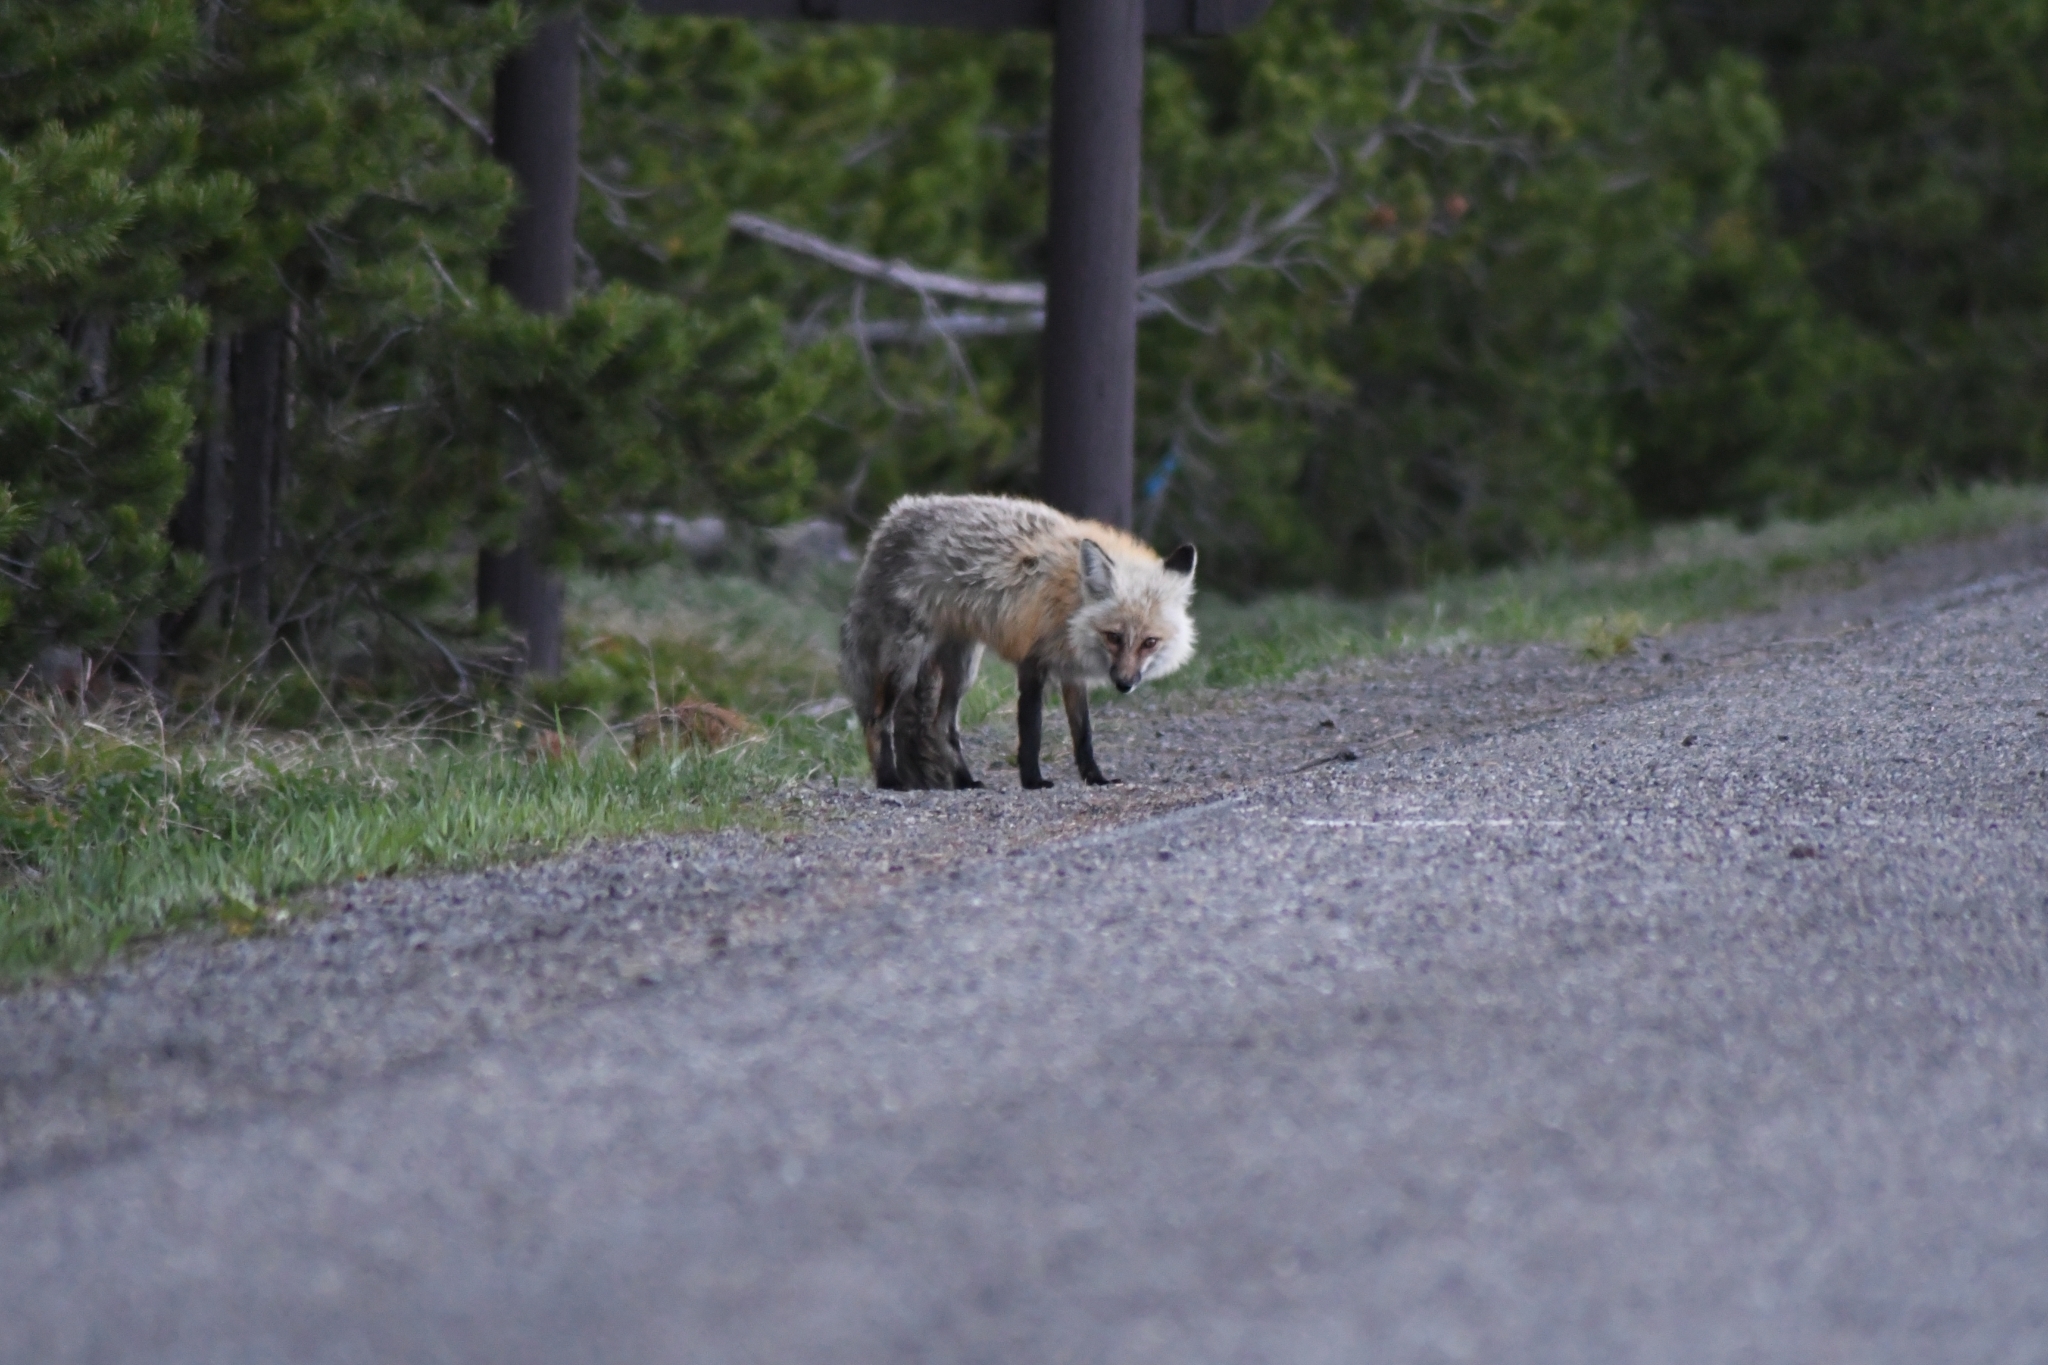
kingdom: Animalia
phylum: Chordata
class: Mammalia
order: Carnivora
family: Canidae
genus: Vulpes
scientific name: Vulpes vulpes
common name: Red fox
